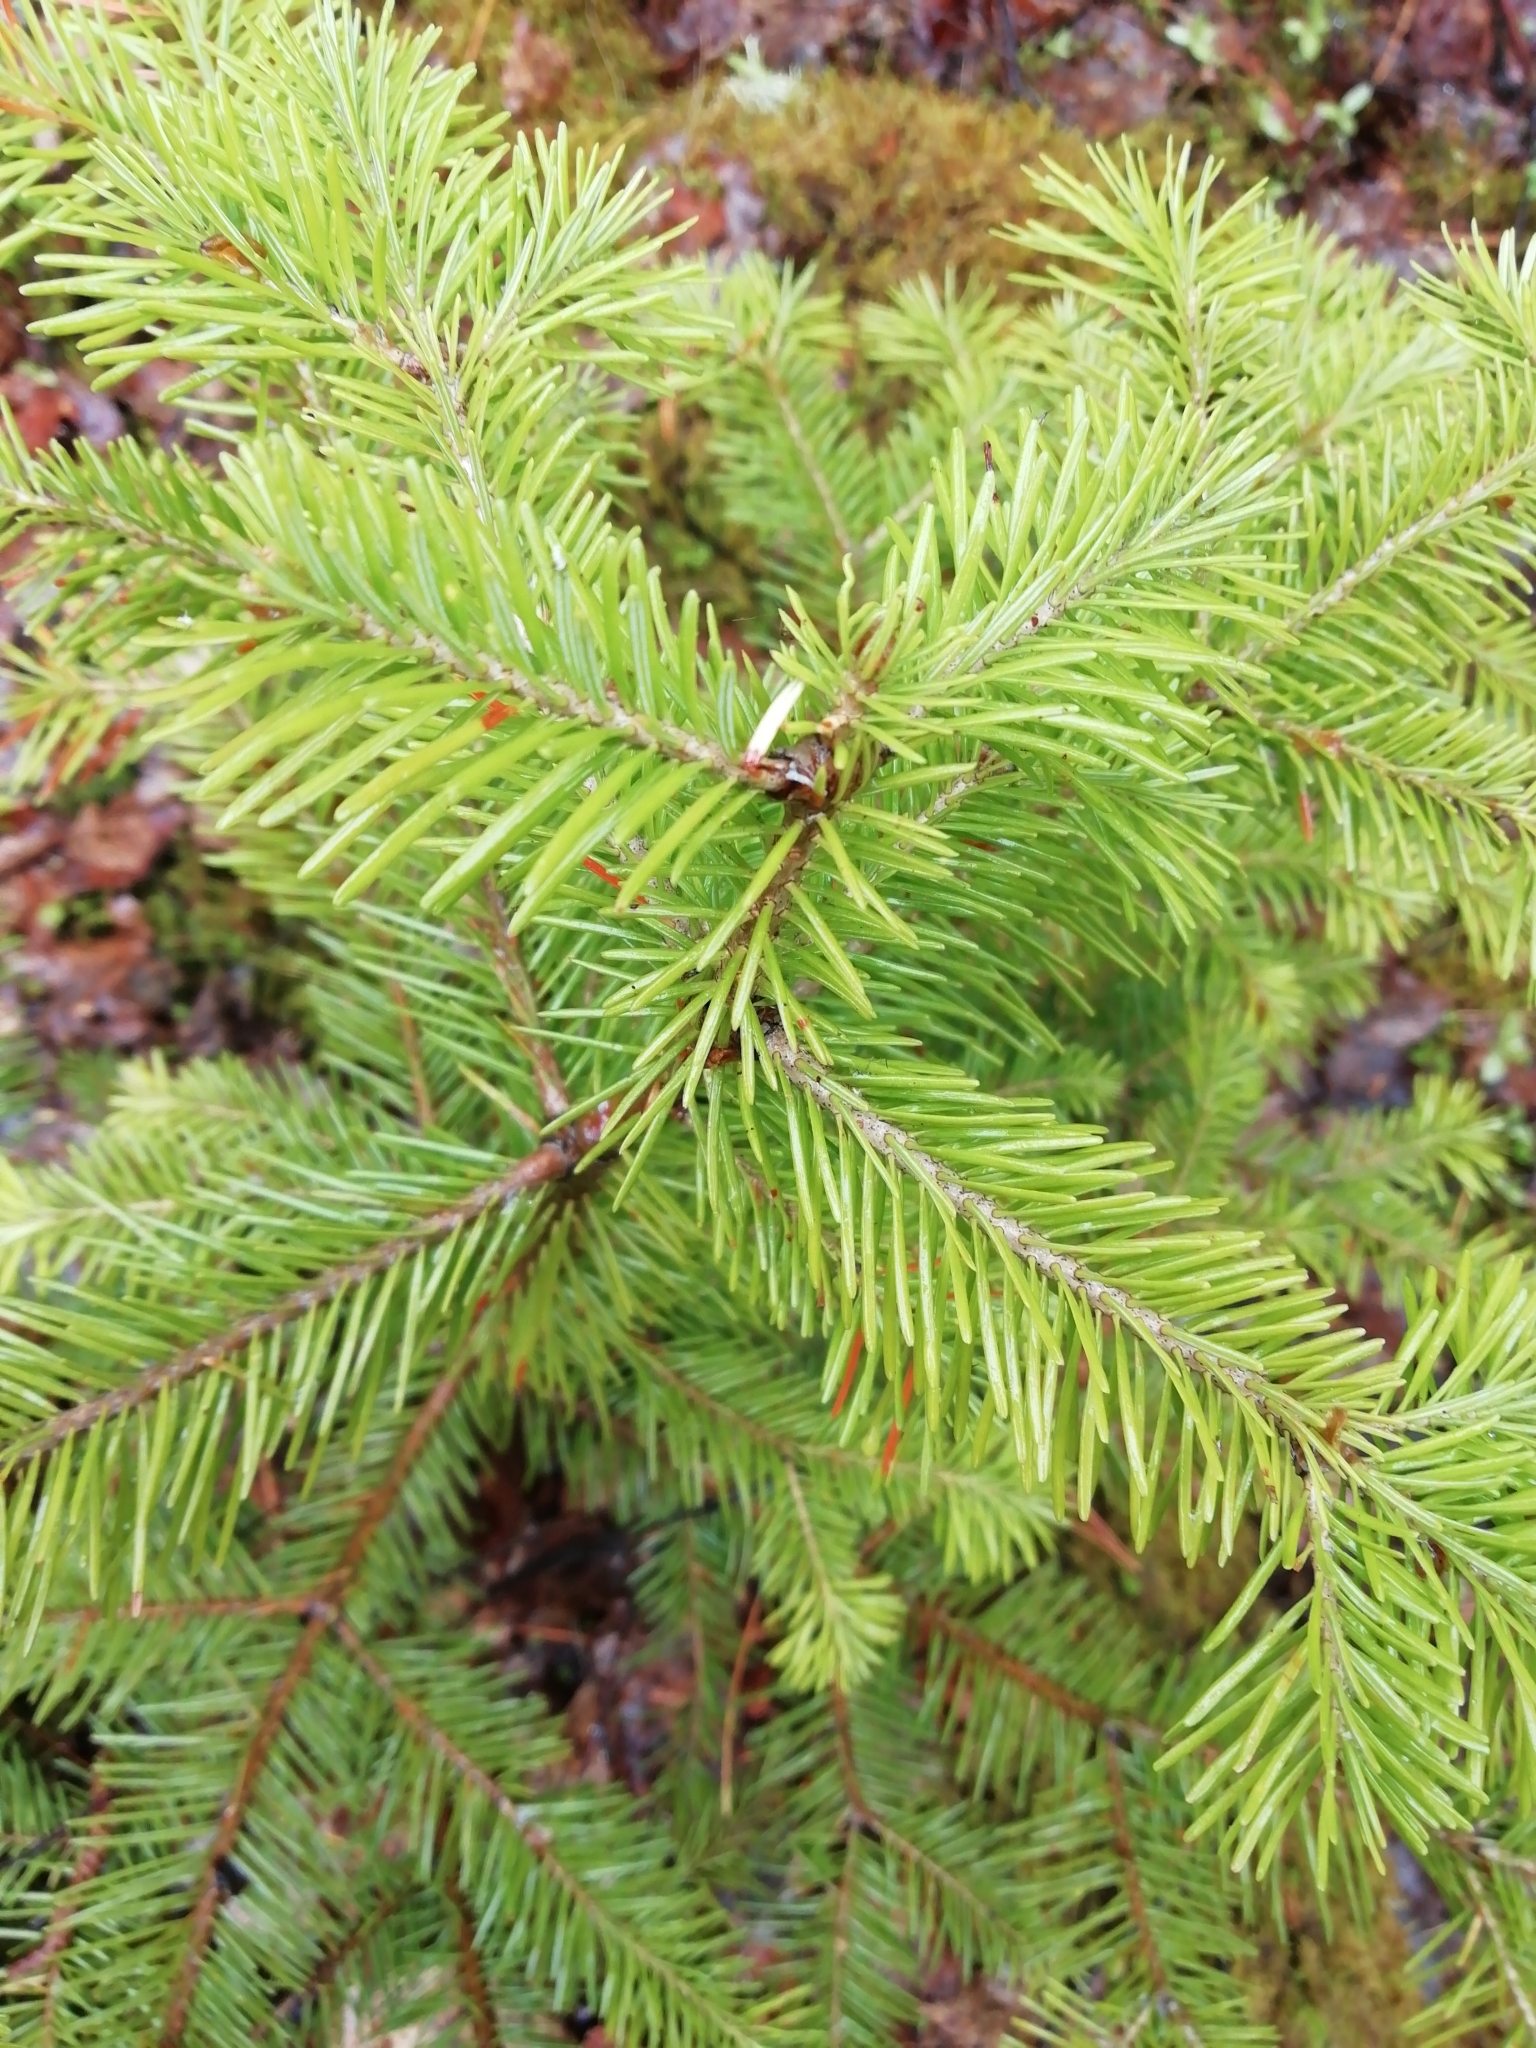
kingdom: Plantae
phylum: Tracheophyta
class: Pinopsida
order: Pinales
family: Pinaceae
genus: Abies
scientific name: Abies sibirica
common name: Siberian fir
